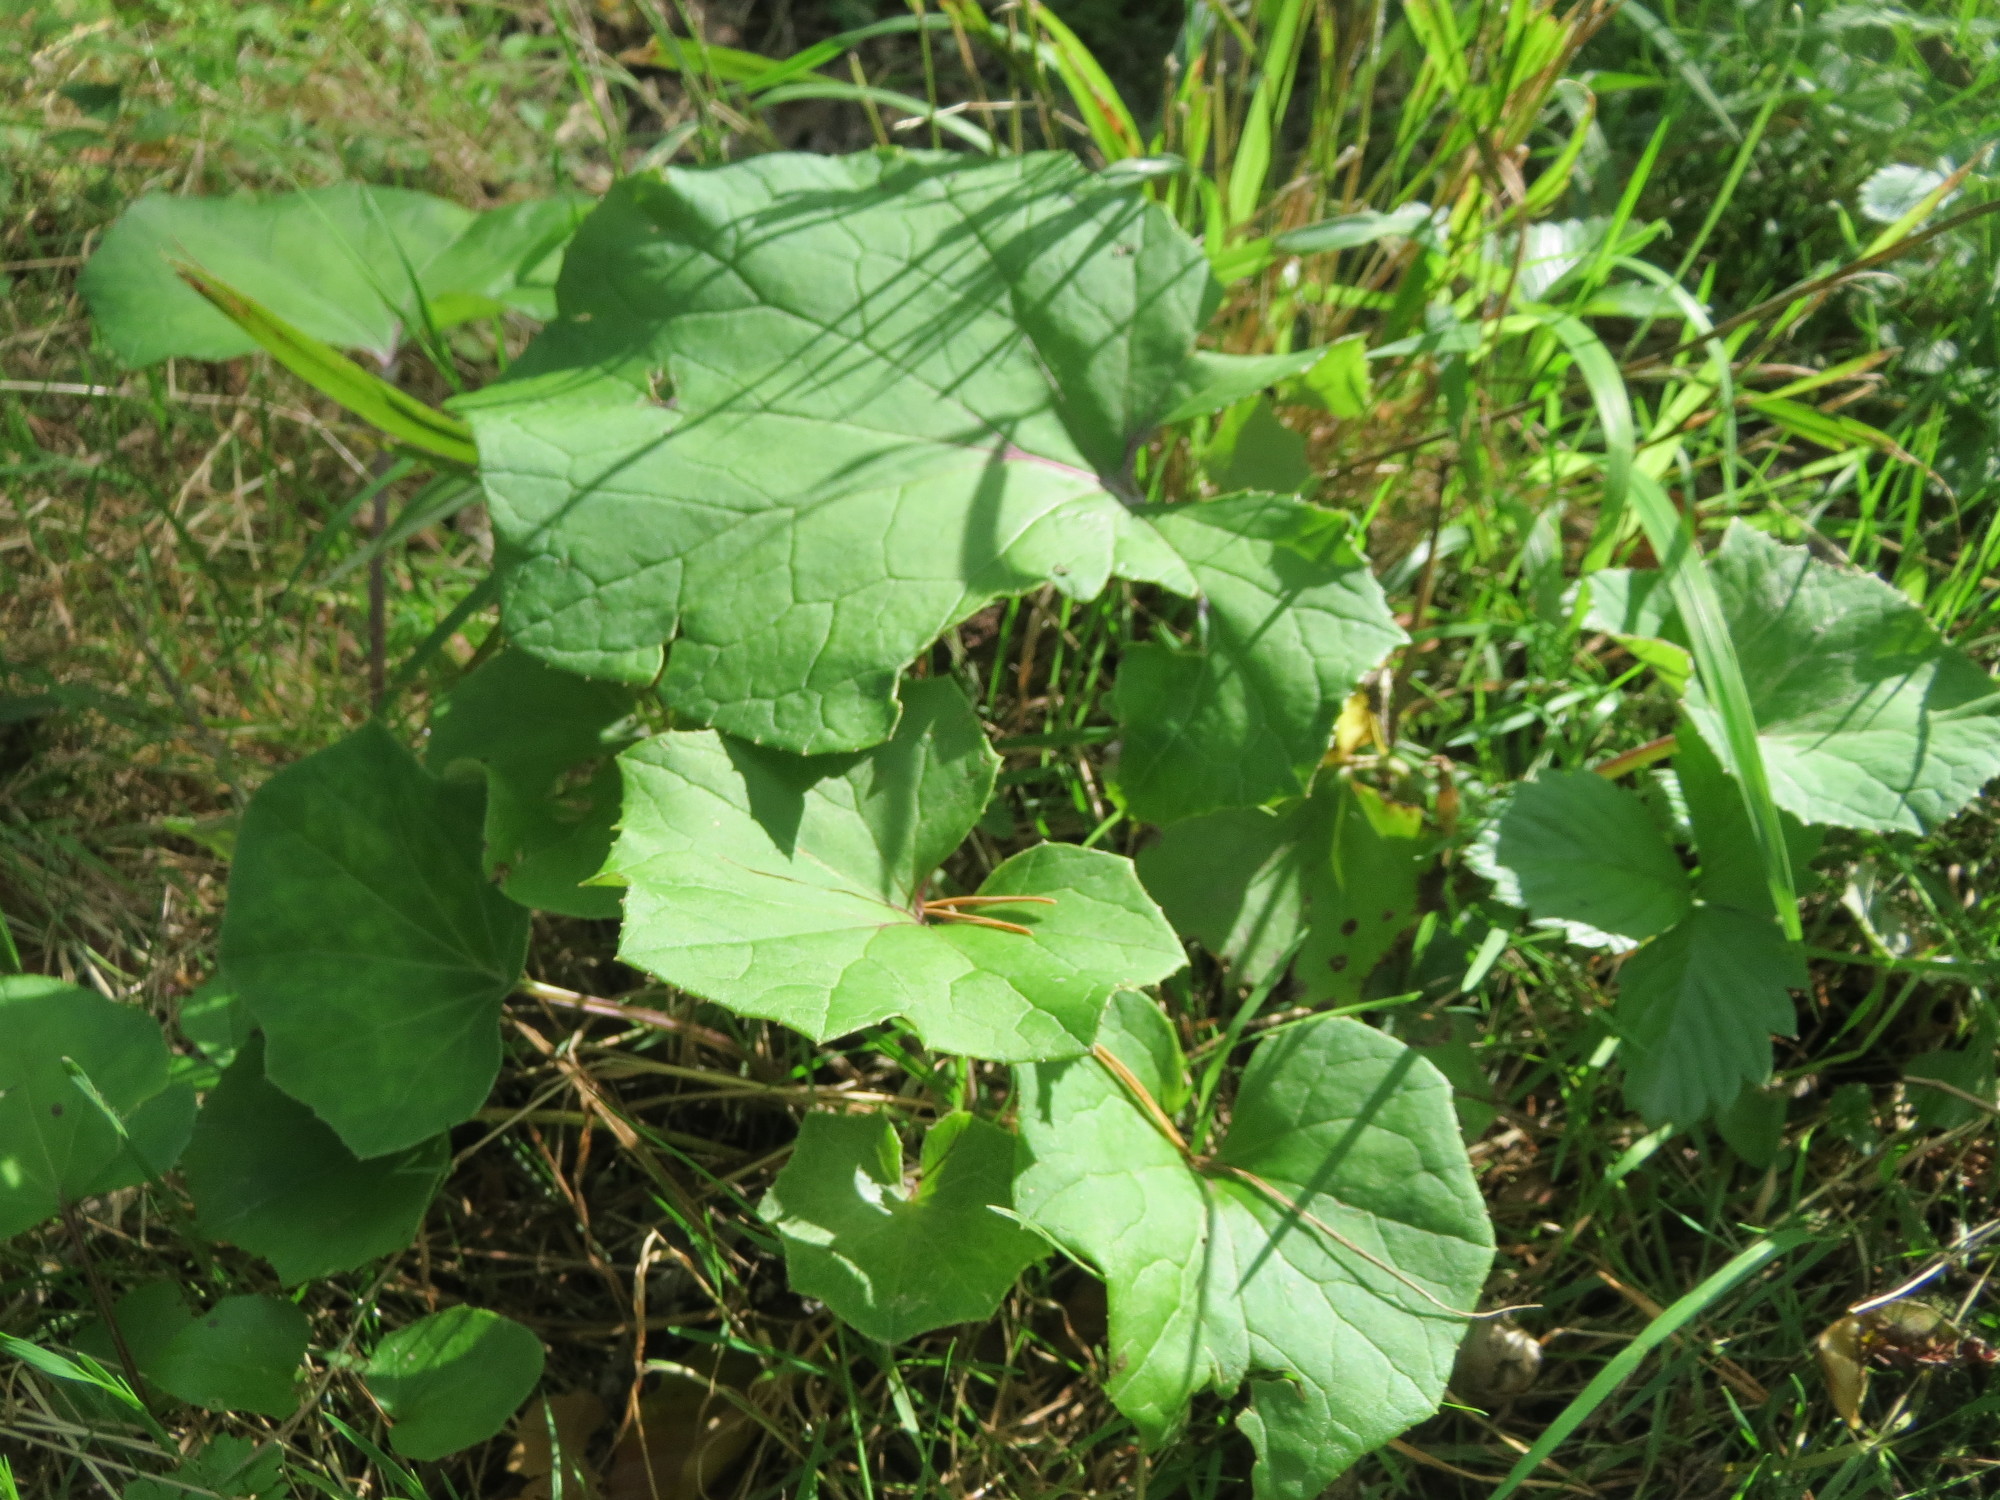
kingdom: Plantae
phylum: Tracheophyta
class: Magnoliopsida
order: Asterales
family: Asteraceae
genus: Tussilago
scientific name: Tussilago farfara
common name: Coltsfoot
